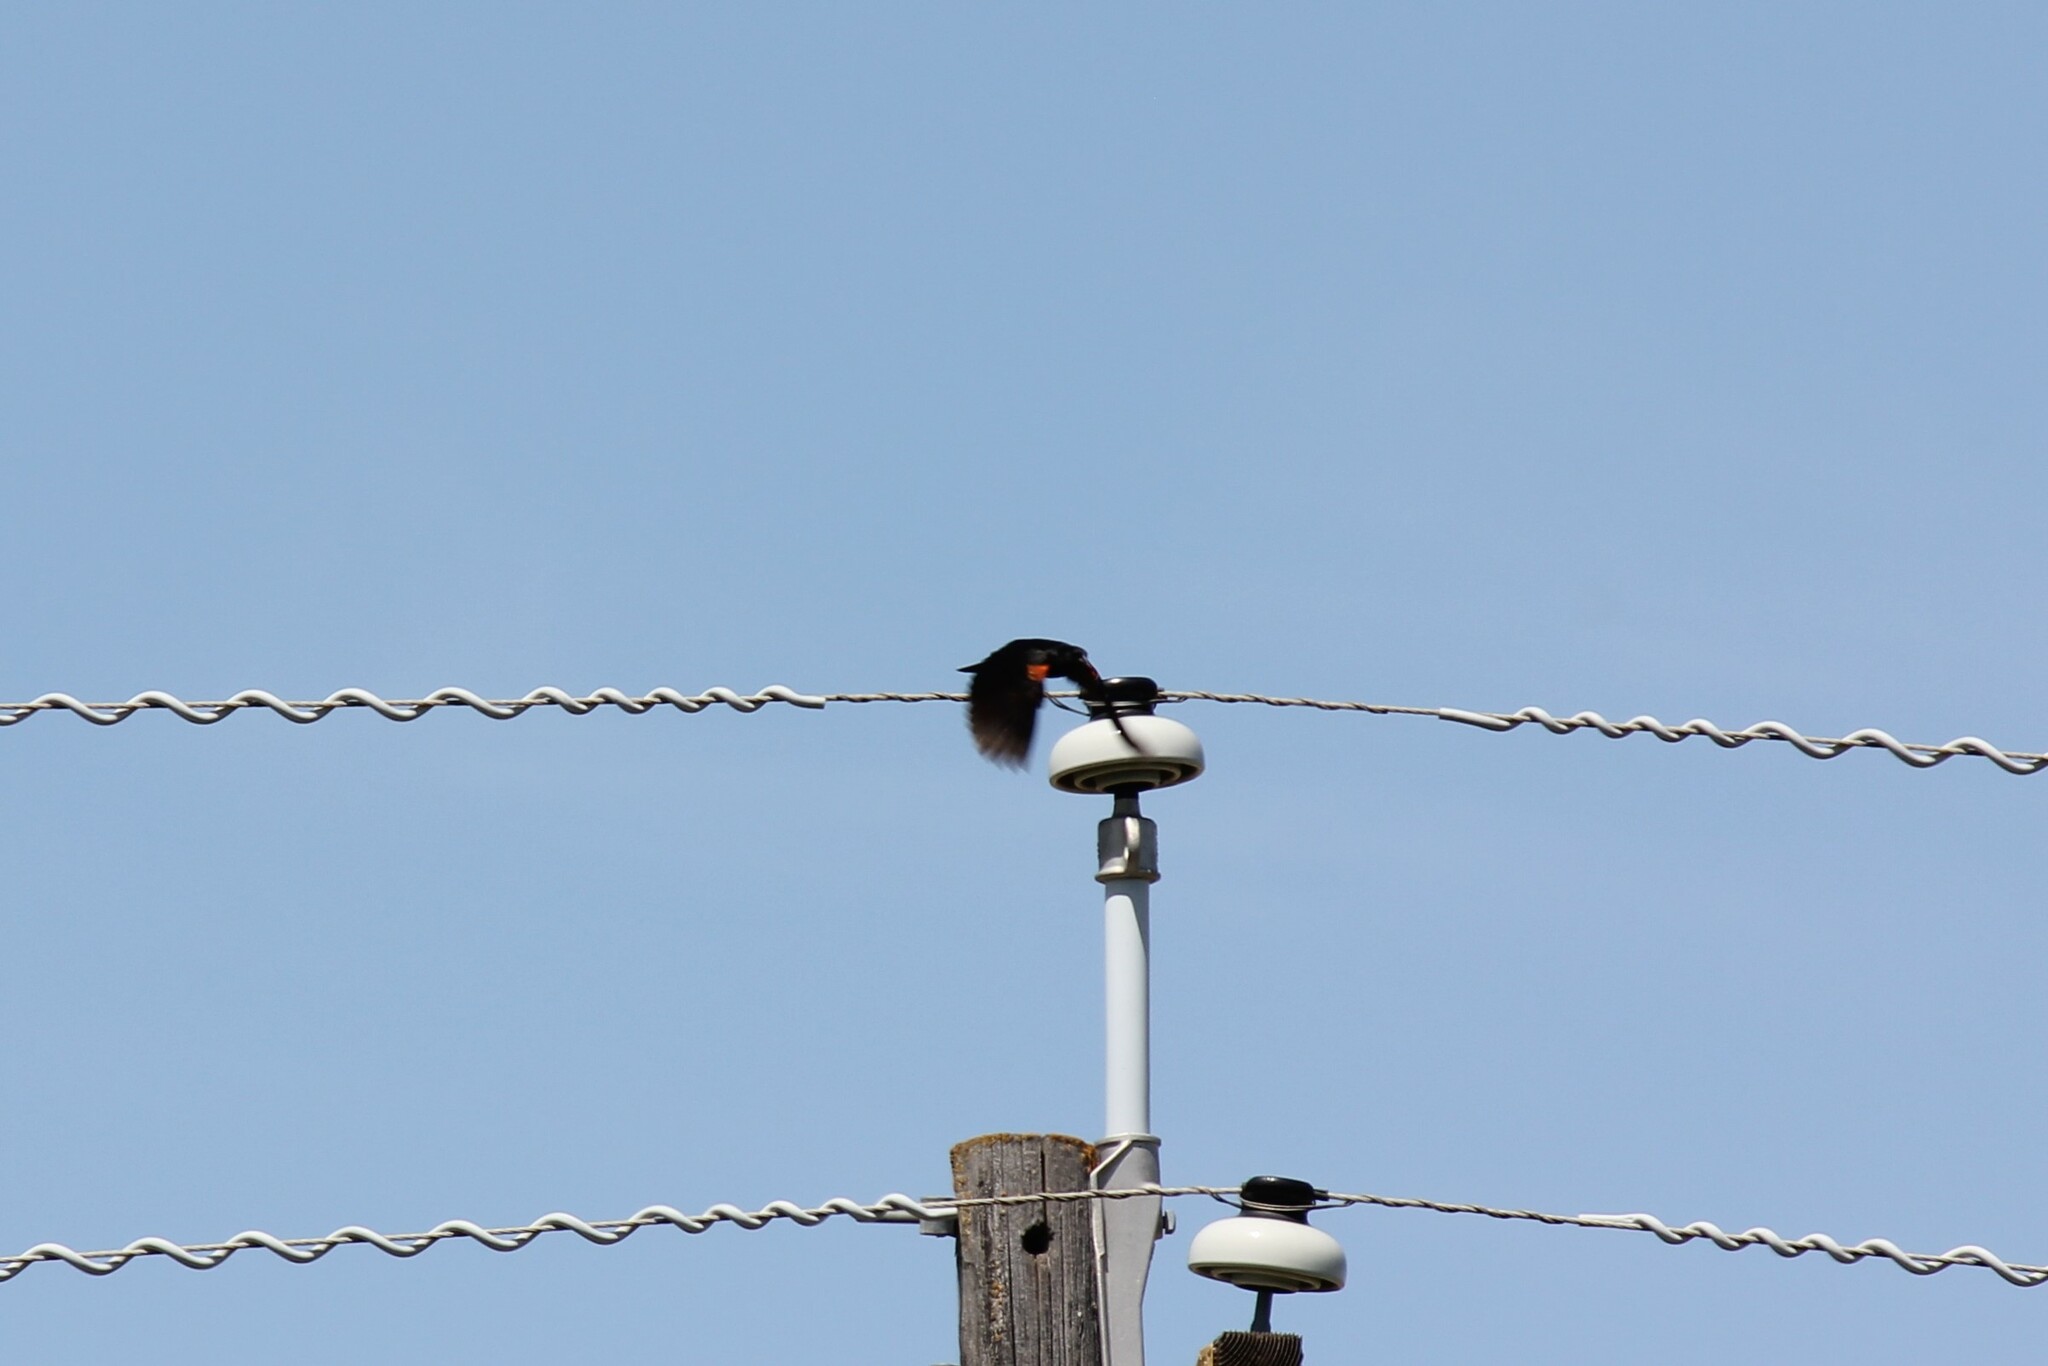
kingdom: Animalia
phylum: Chordata
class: Aves
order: Passeriformes
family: Icteridae
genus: Agelaius
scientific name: Agelaius phoeniceus
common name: Red-winged blackbird
